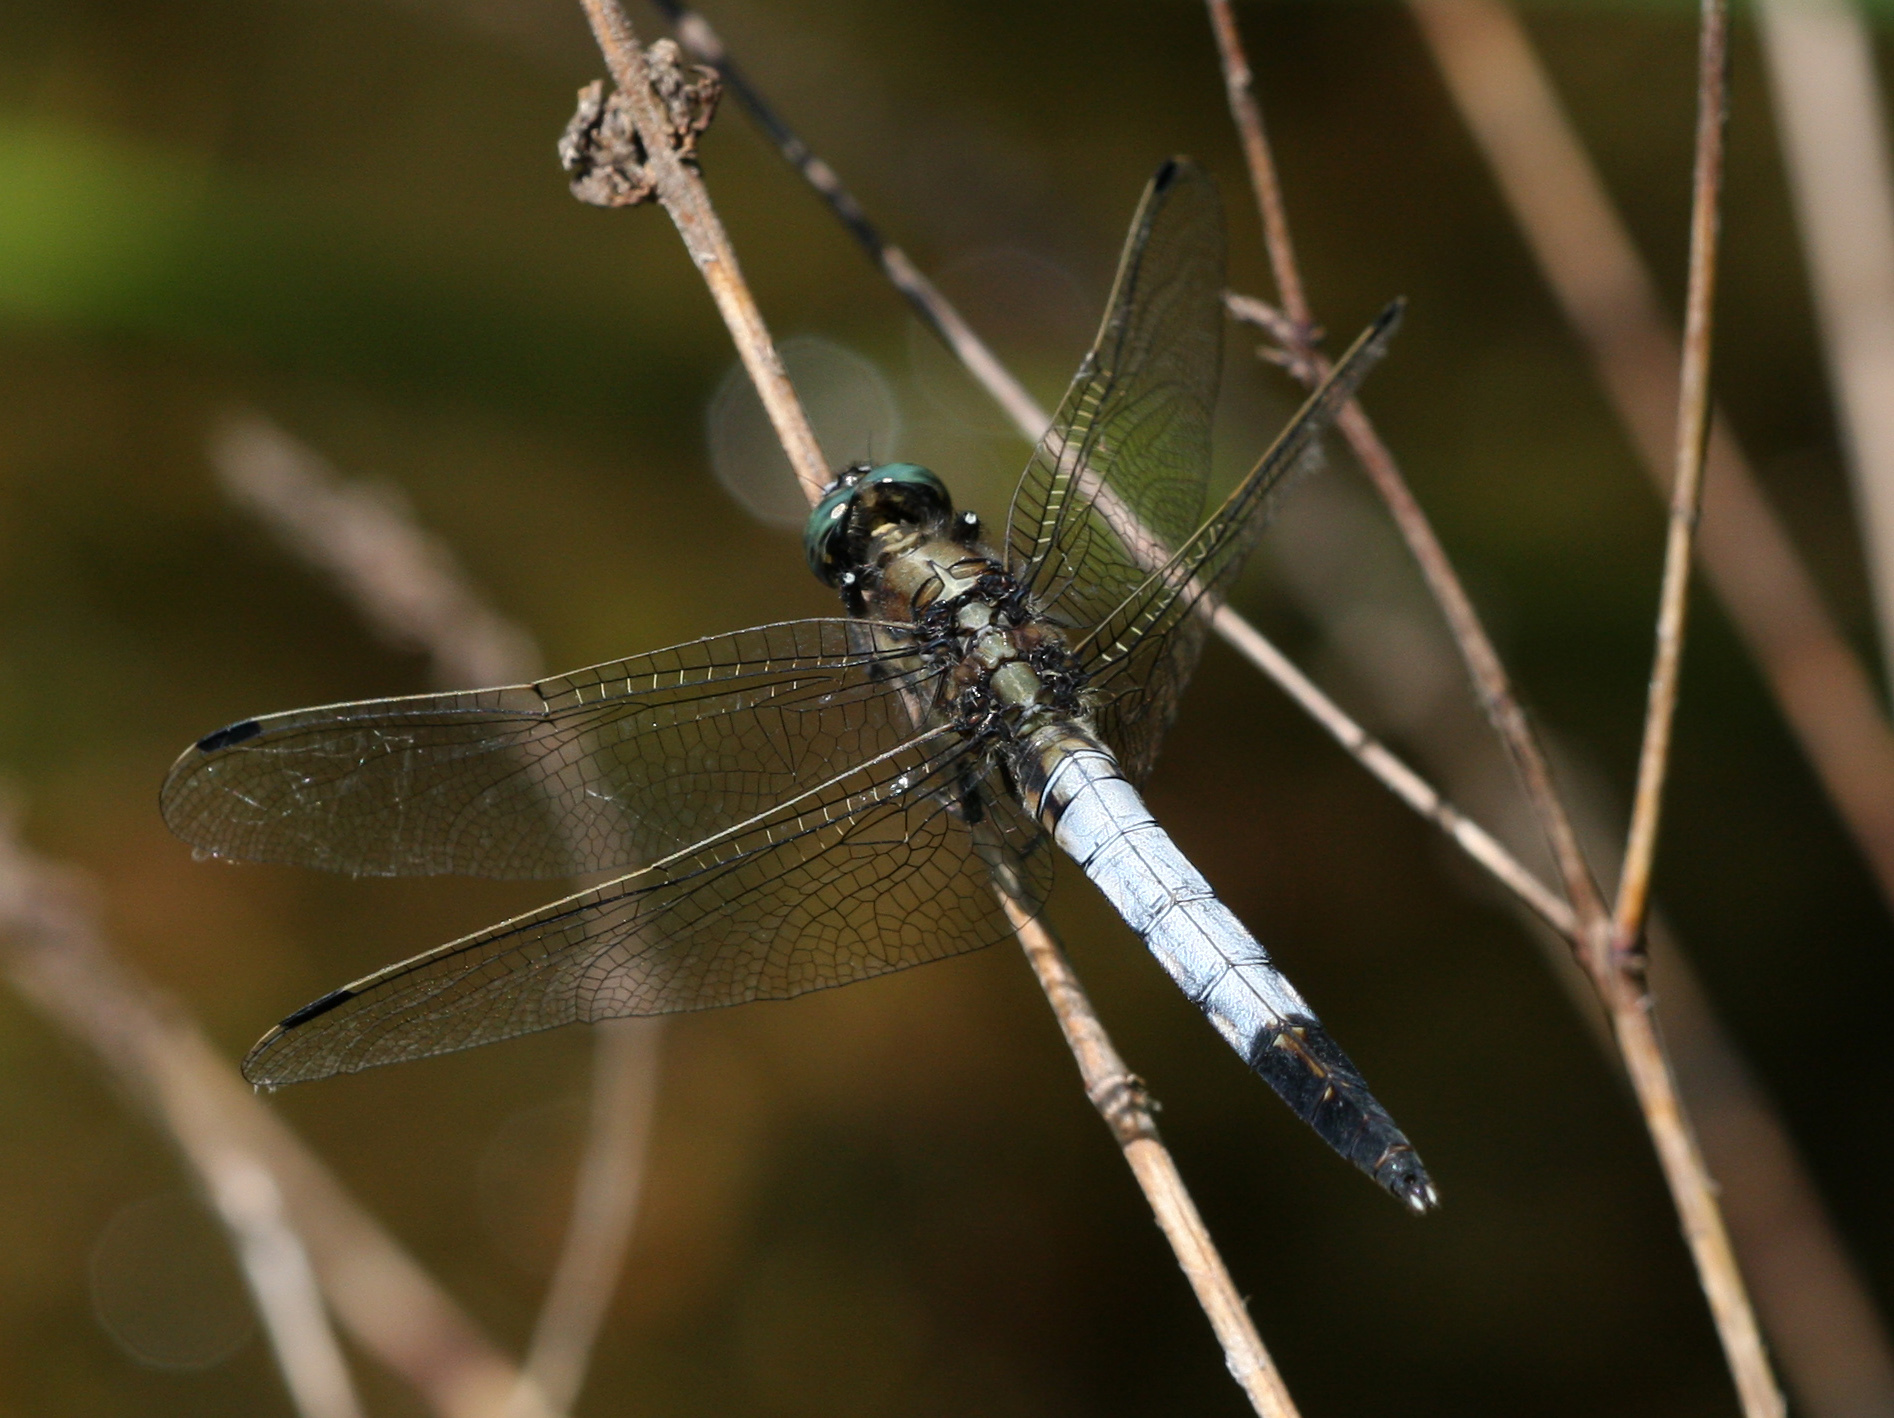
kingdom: Animalia
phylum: Arthropoda
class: Insecta
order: Odonata
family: Libellulidae
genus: Orthetrum
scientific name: Orthetrum albistylum
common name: White-tailed skimmer
